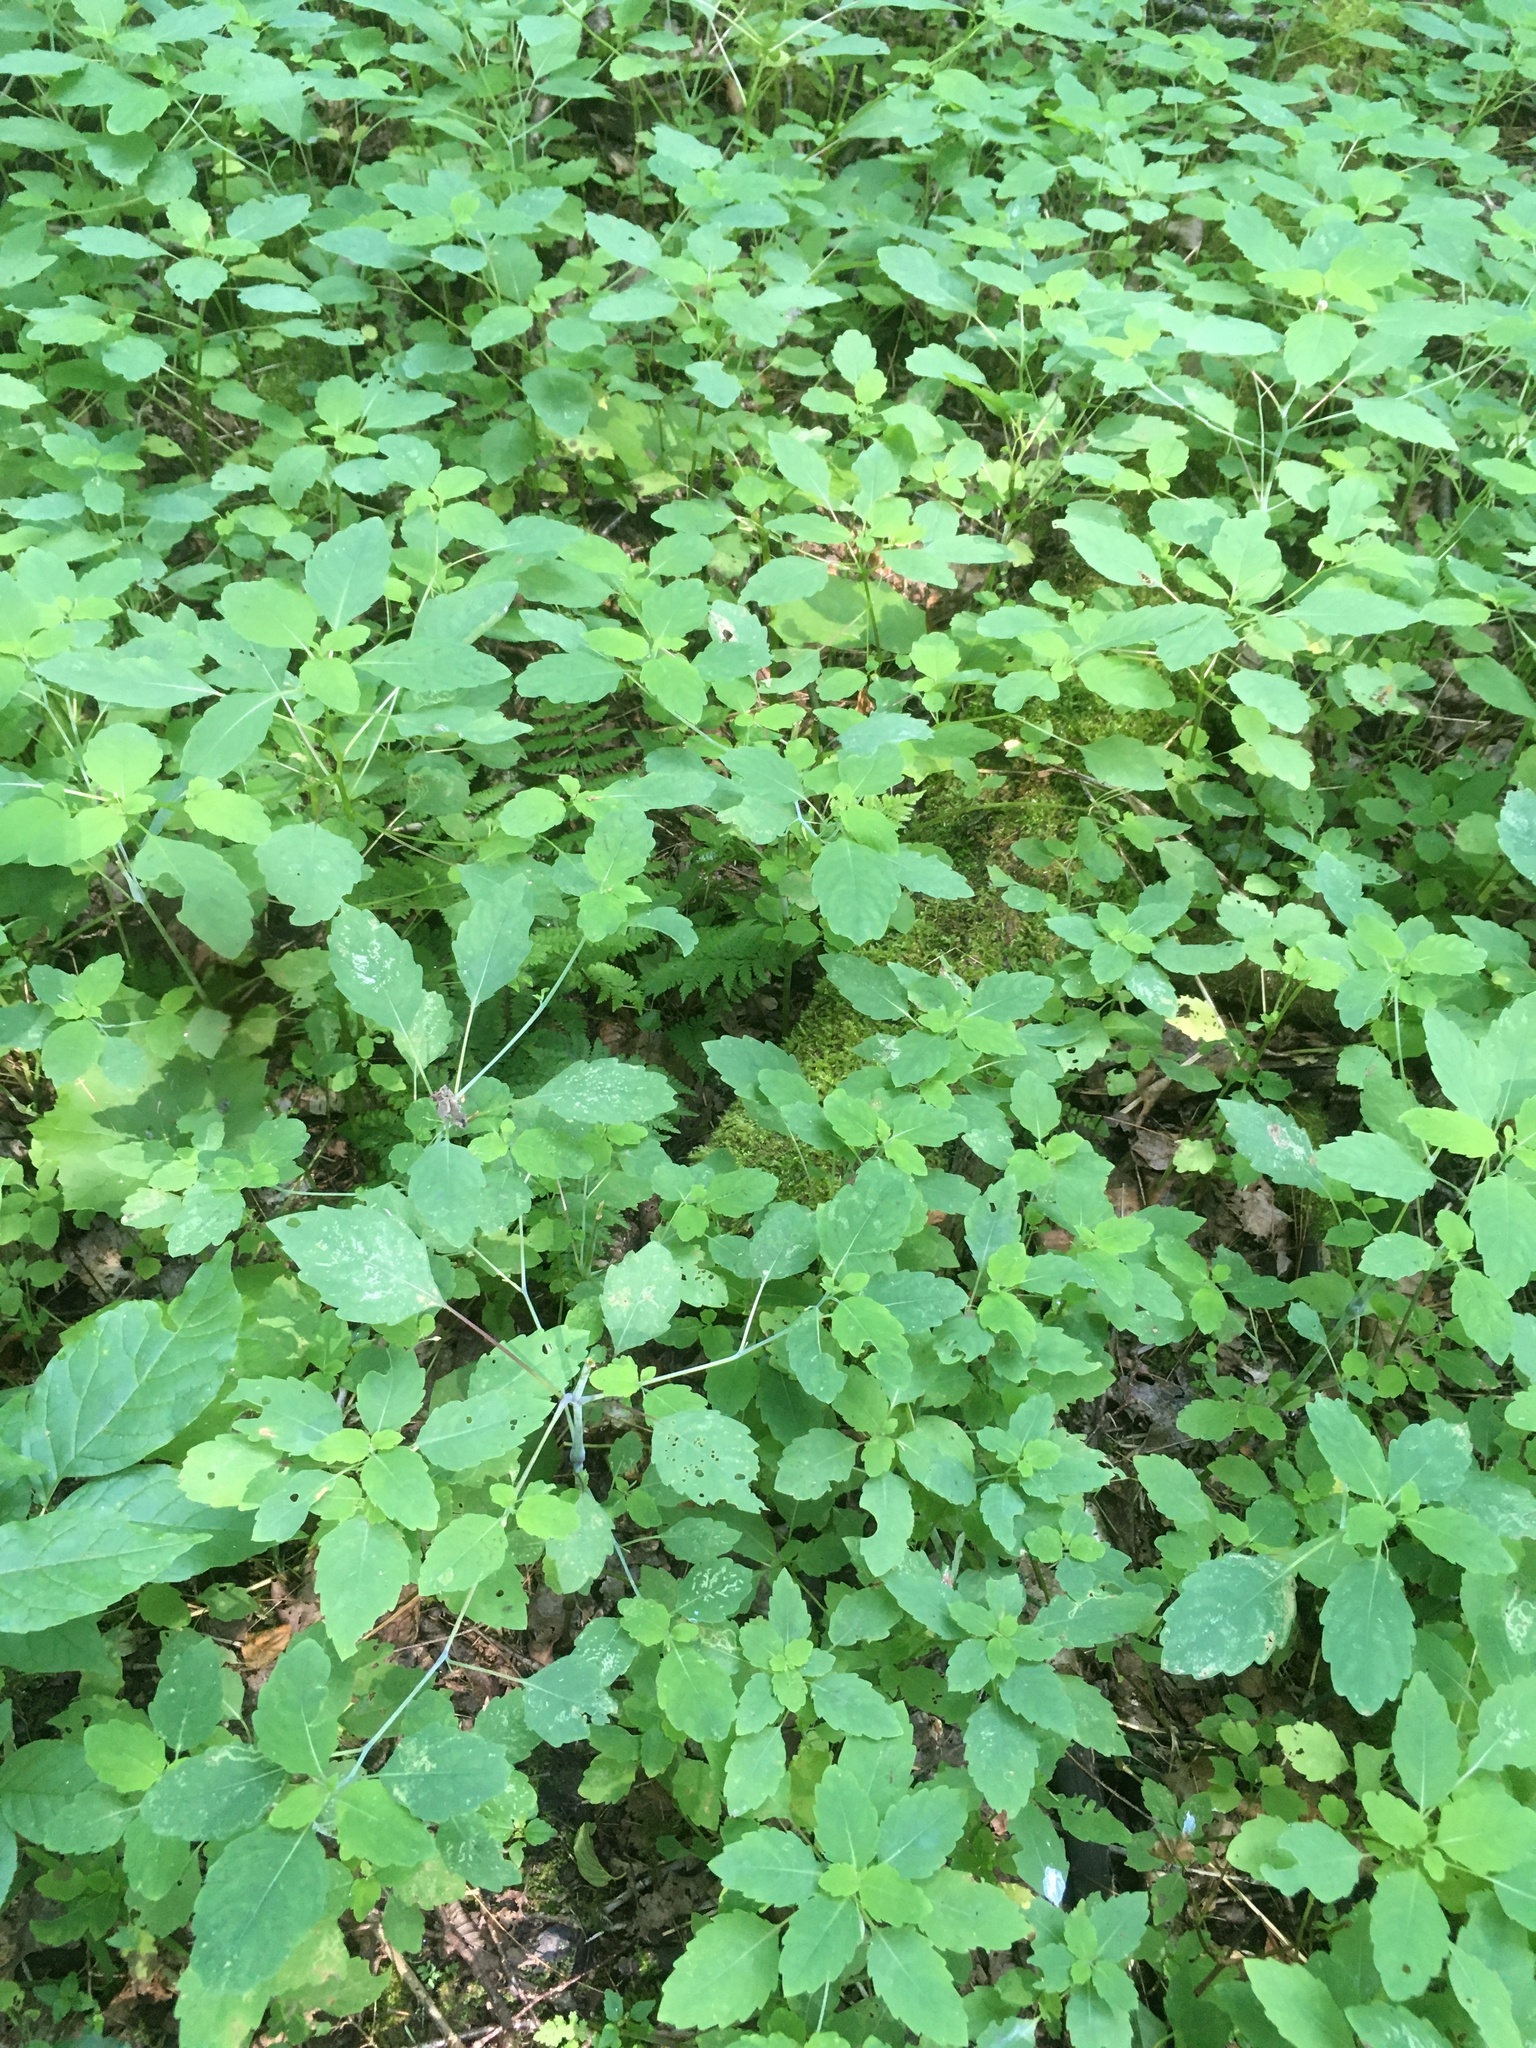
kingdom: Plantae
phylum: Tracheophyta
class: Magnoliopsida
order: Ericales
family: Balsaminaceae
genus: Impatiens
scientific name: Impatiens capensis
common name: Orange balsam
